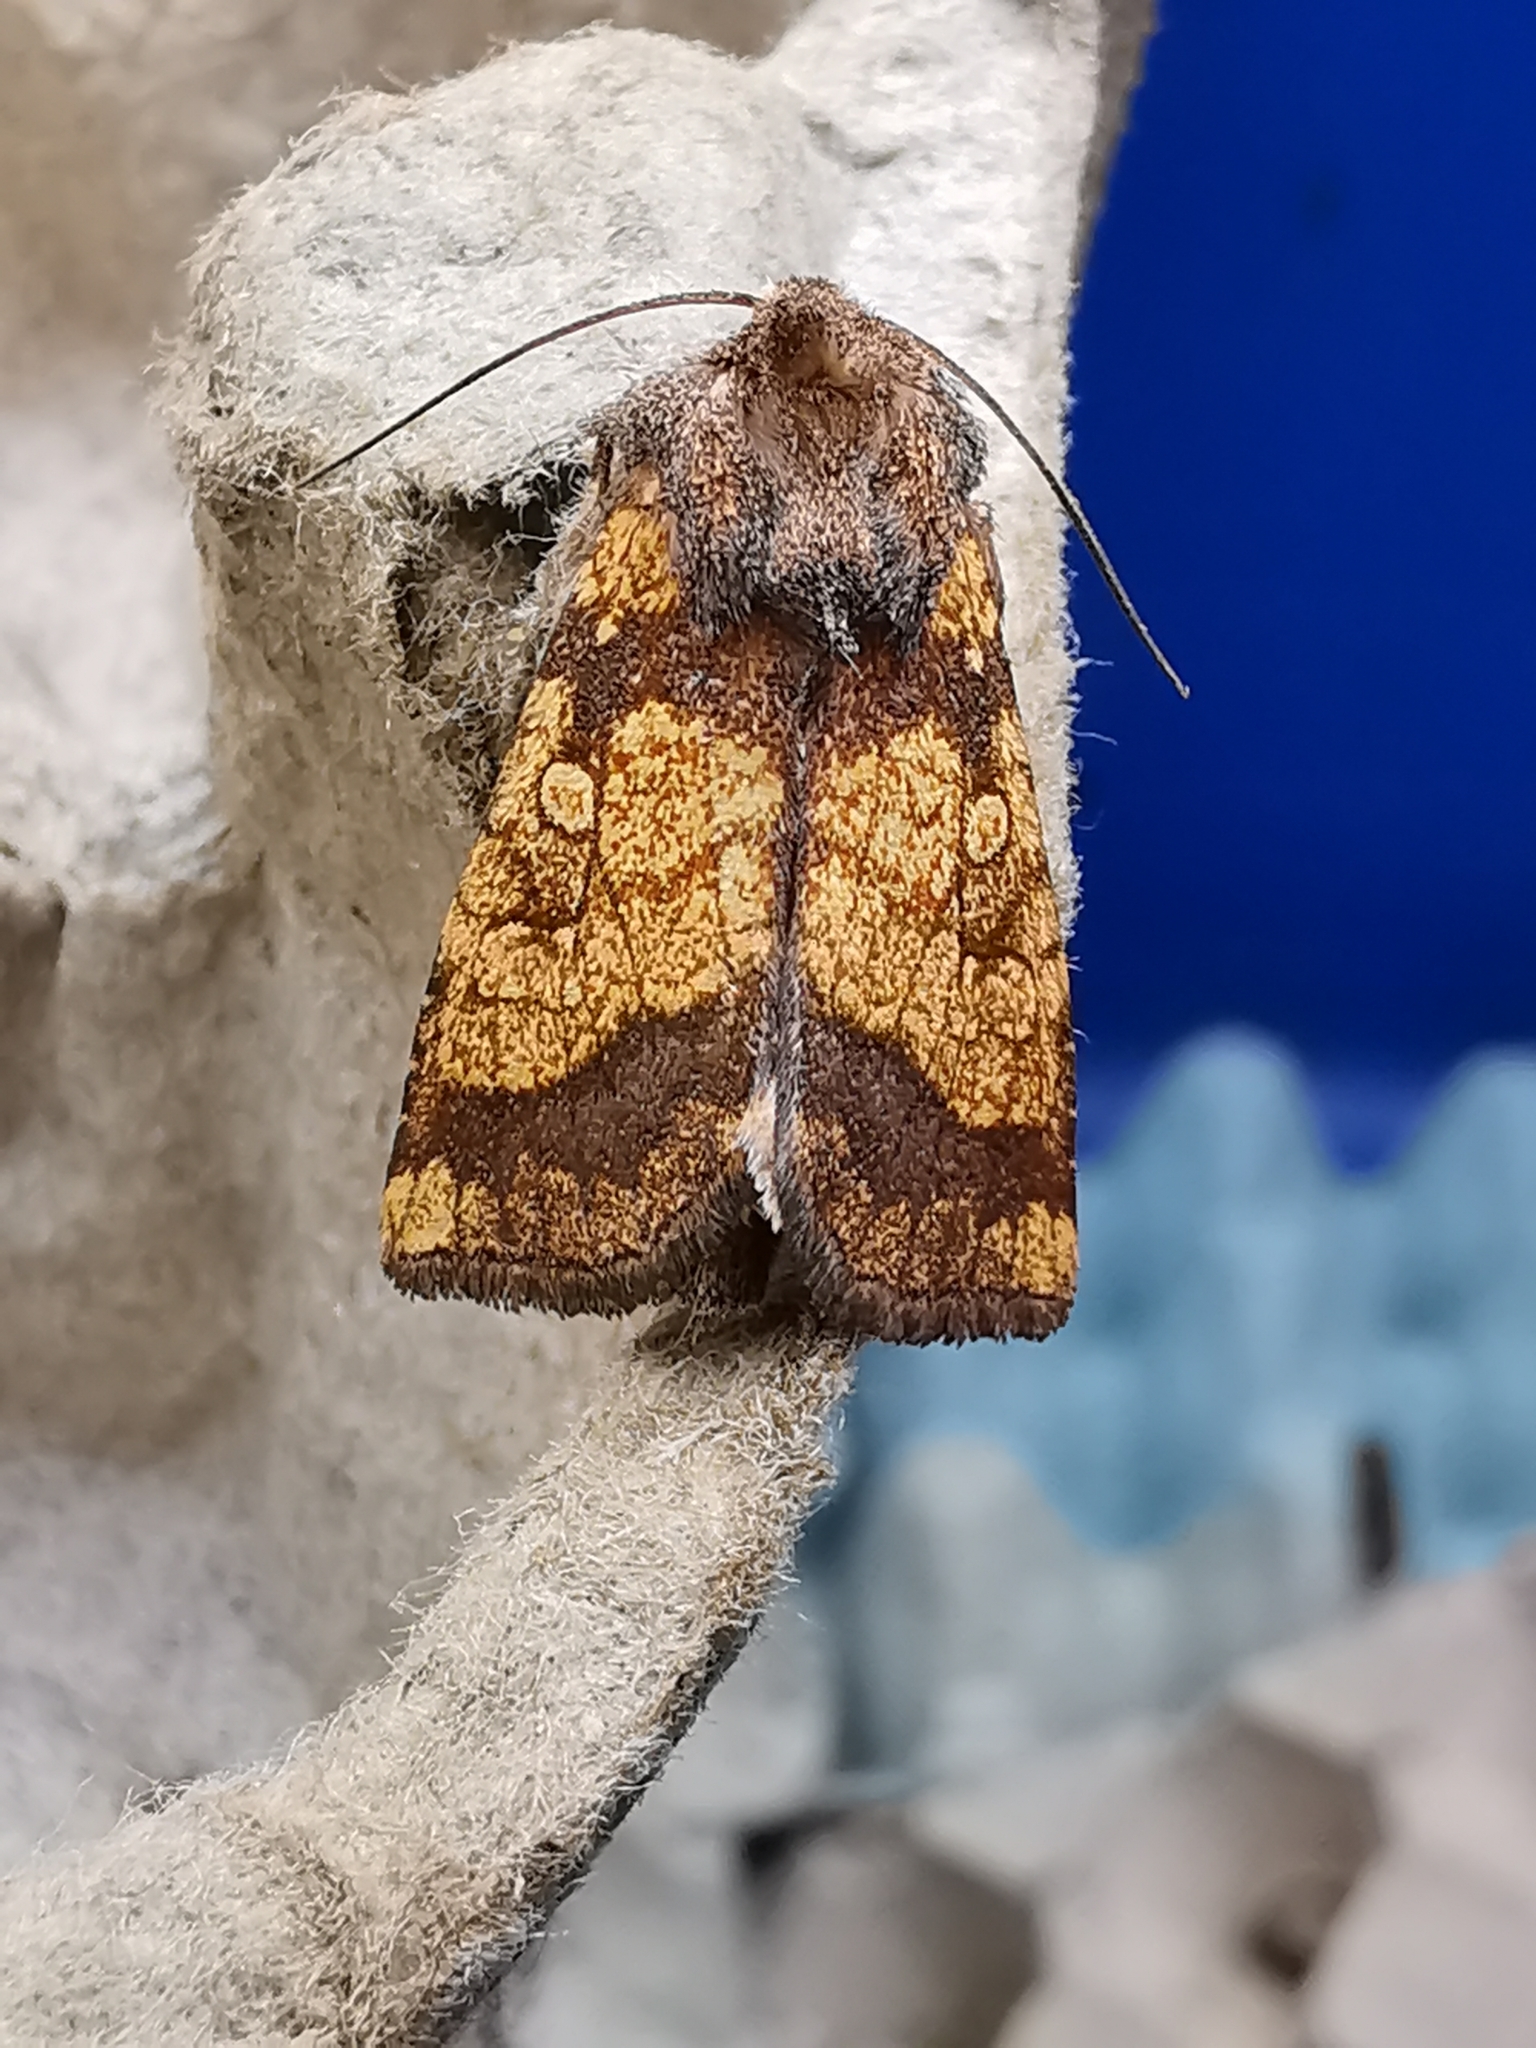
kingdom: Animalia
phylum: Arthropoda
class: Insecta
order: Lepidoptera
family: Noctuidae
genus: Gortyna
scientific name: Gortyna flavago
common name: Frosted orange
